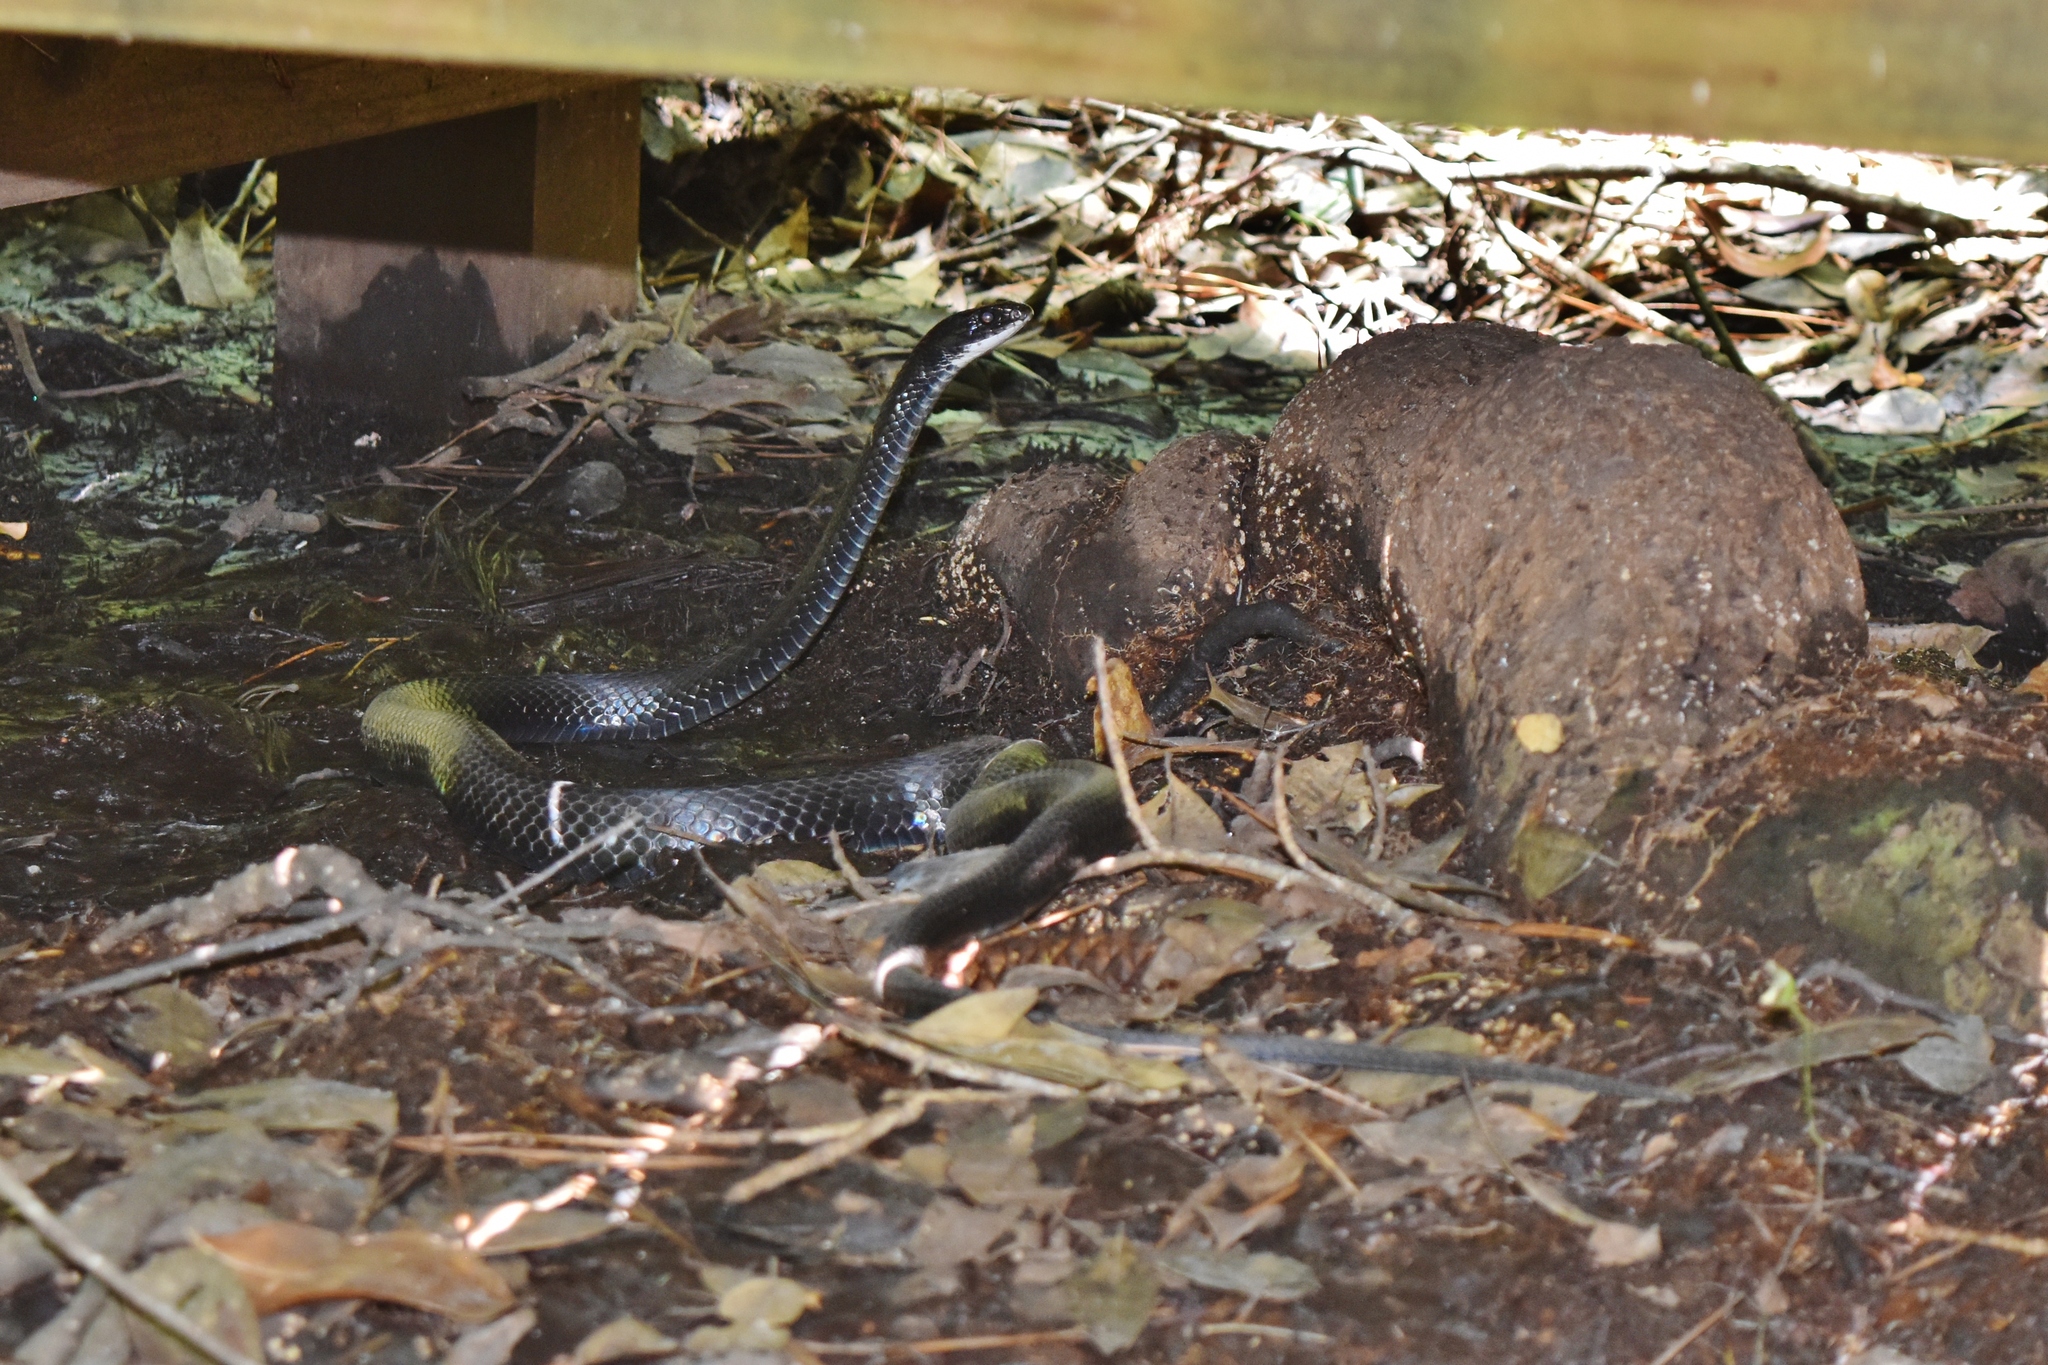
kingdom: Animalia
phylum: Chordata
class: Squamata
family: Colubridae
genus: Coluber
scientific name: Coluber constrictor
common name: Eastern racer
